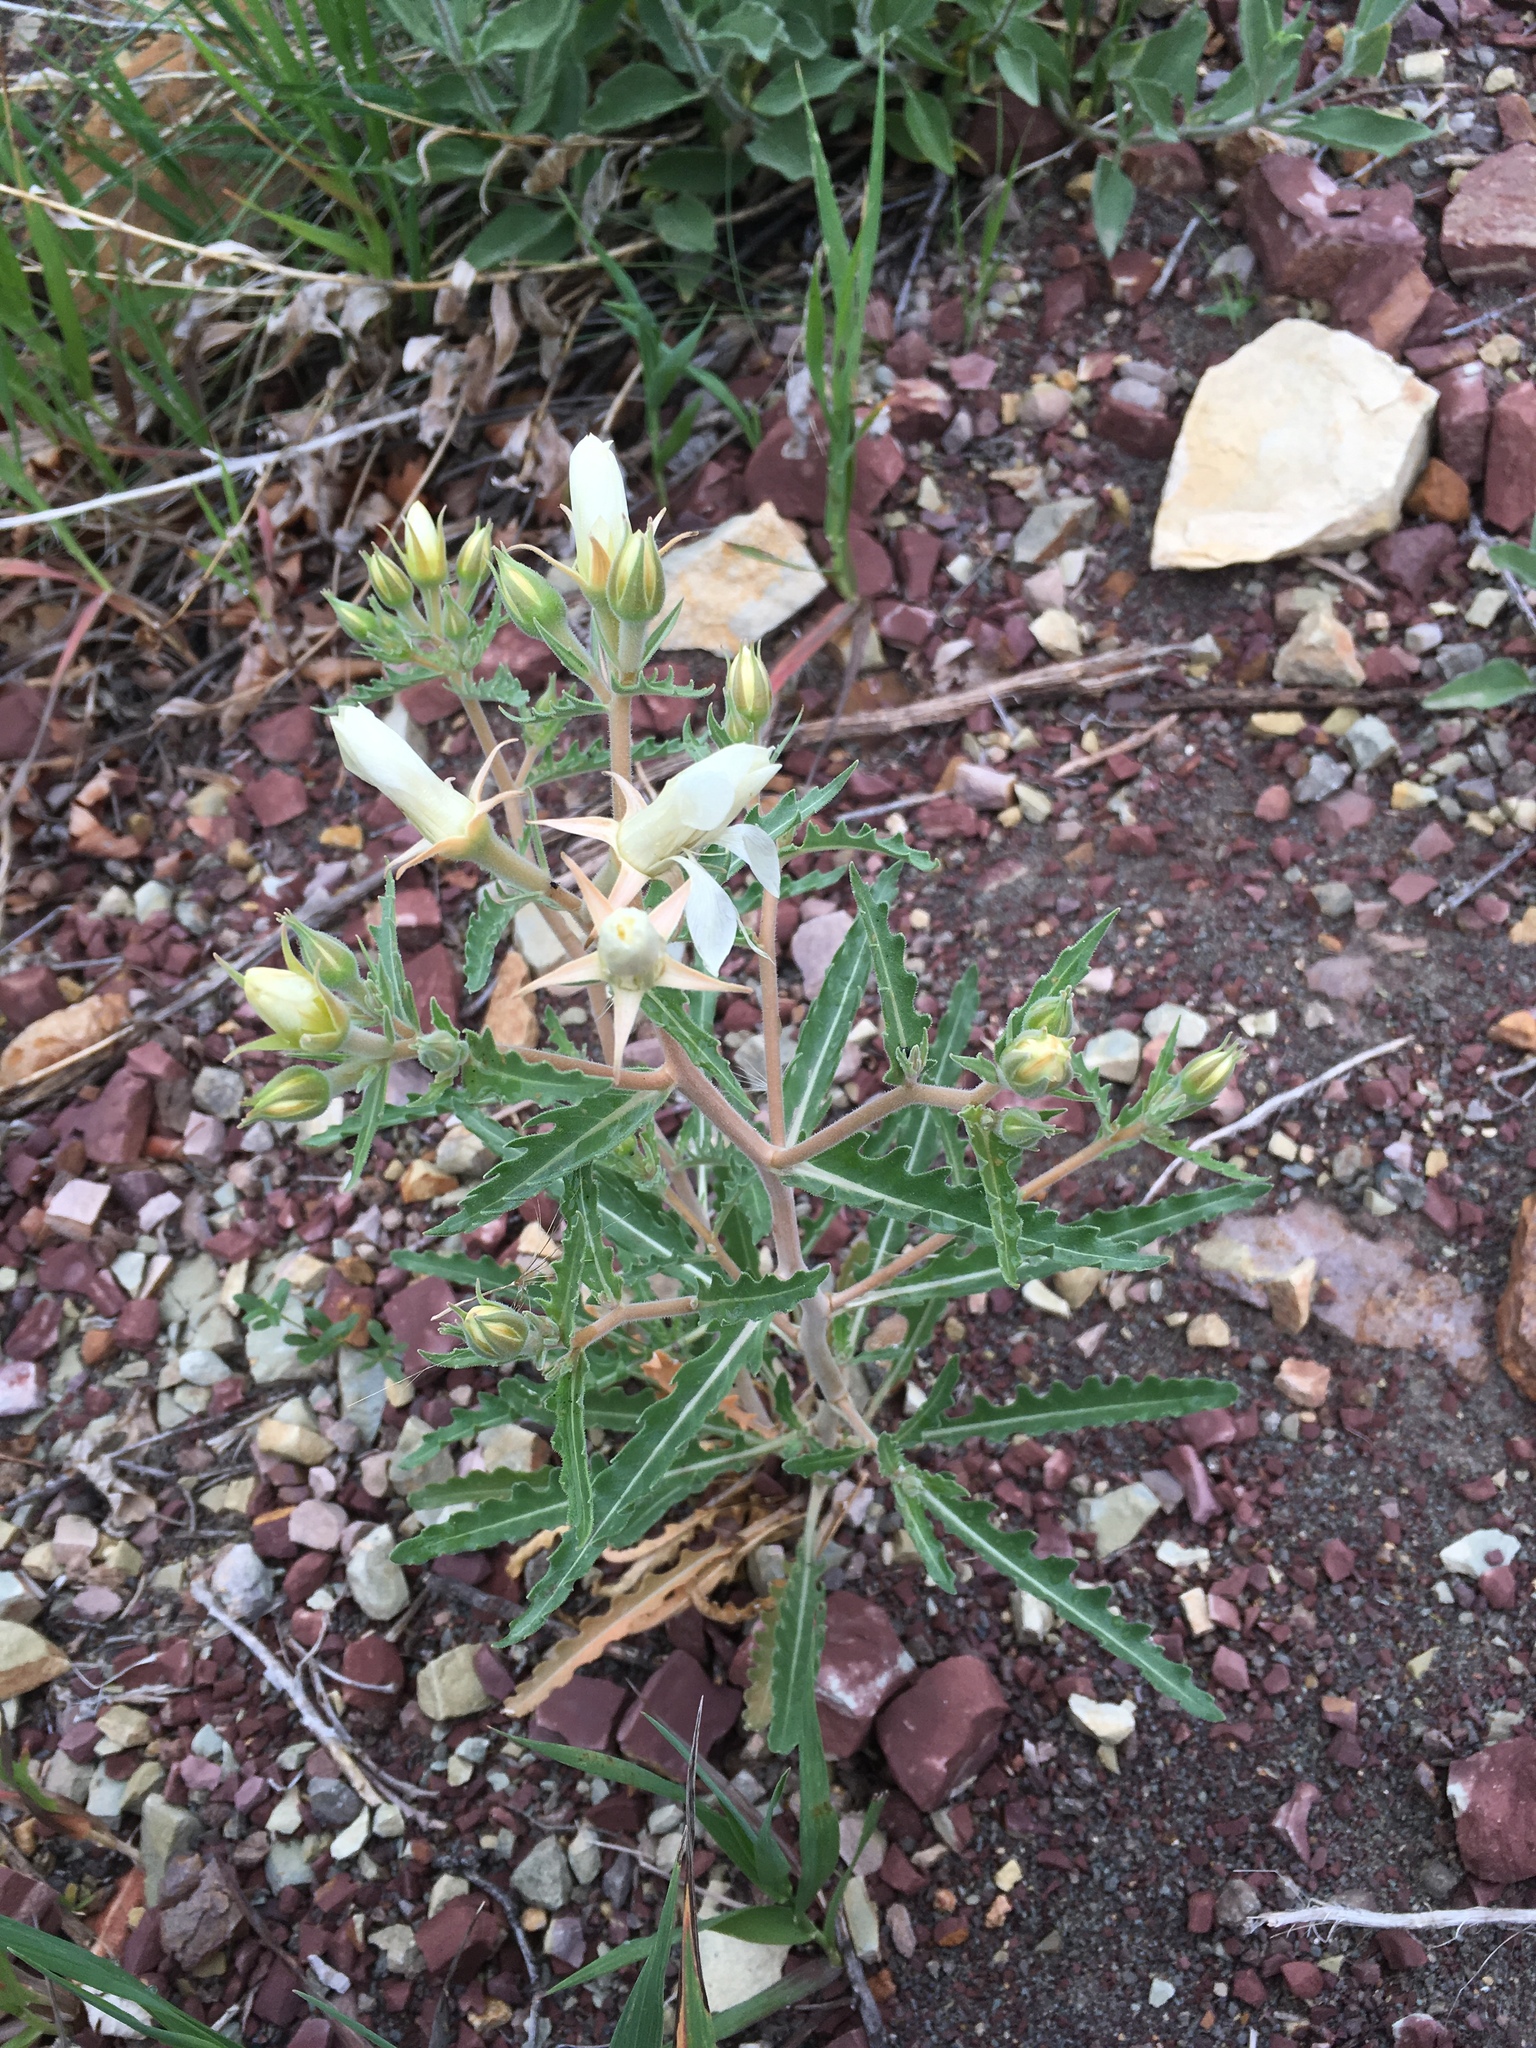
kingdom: Plantae
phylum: Tracheophyta
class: Magnoliopsida
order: Cornales
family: Loasaceae
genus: Mentzelia
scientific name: Mentzelia multiflora
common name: Adonis blazingstar
